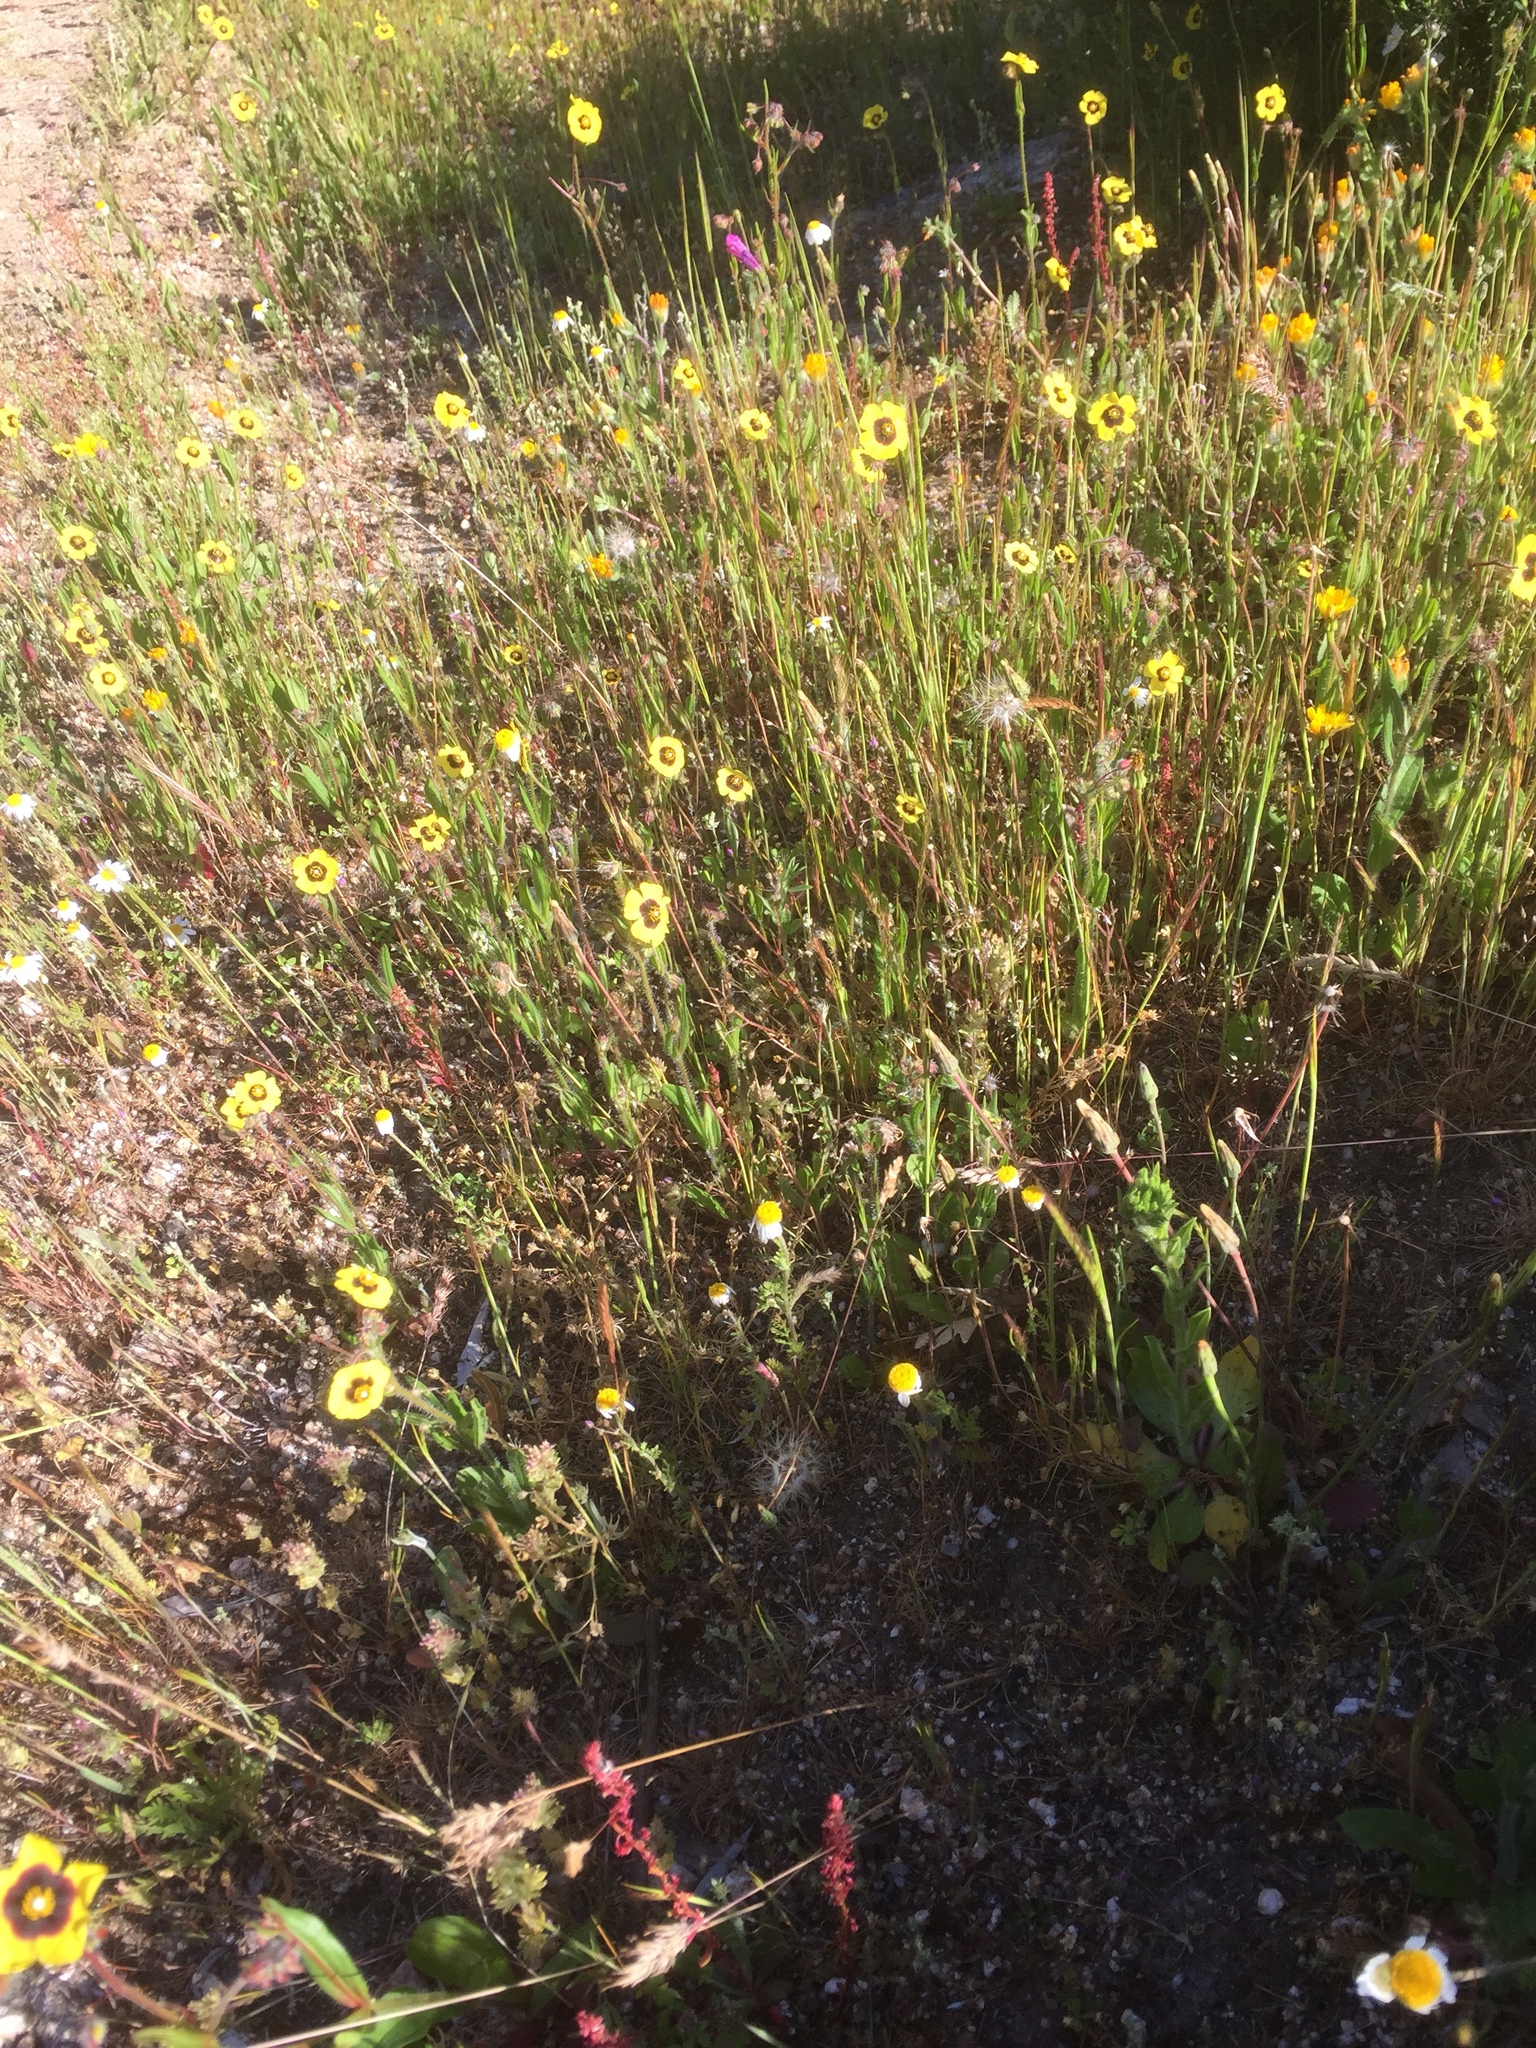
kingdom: Plantae
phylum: Tracheophyta
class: Magnoliopsida
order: Malvales
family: Cistaceae
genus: Tuberaria
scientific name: Tuberaria guttata
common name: Spotted rock-rose
